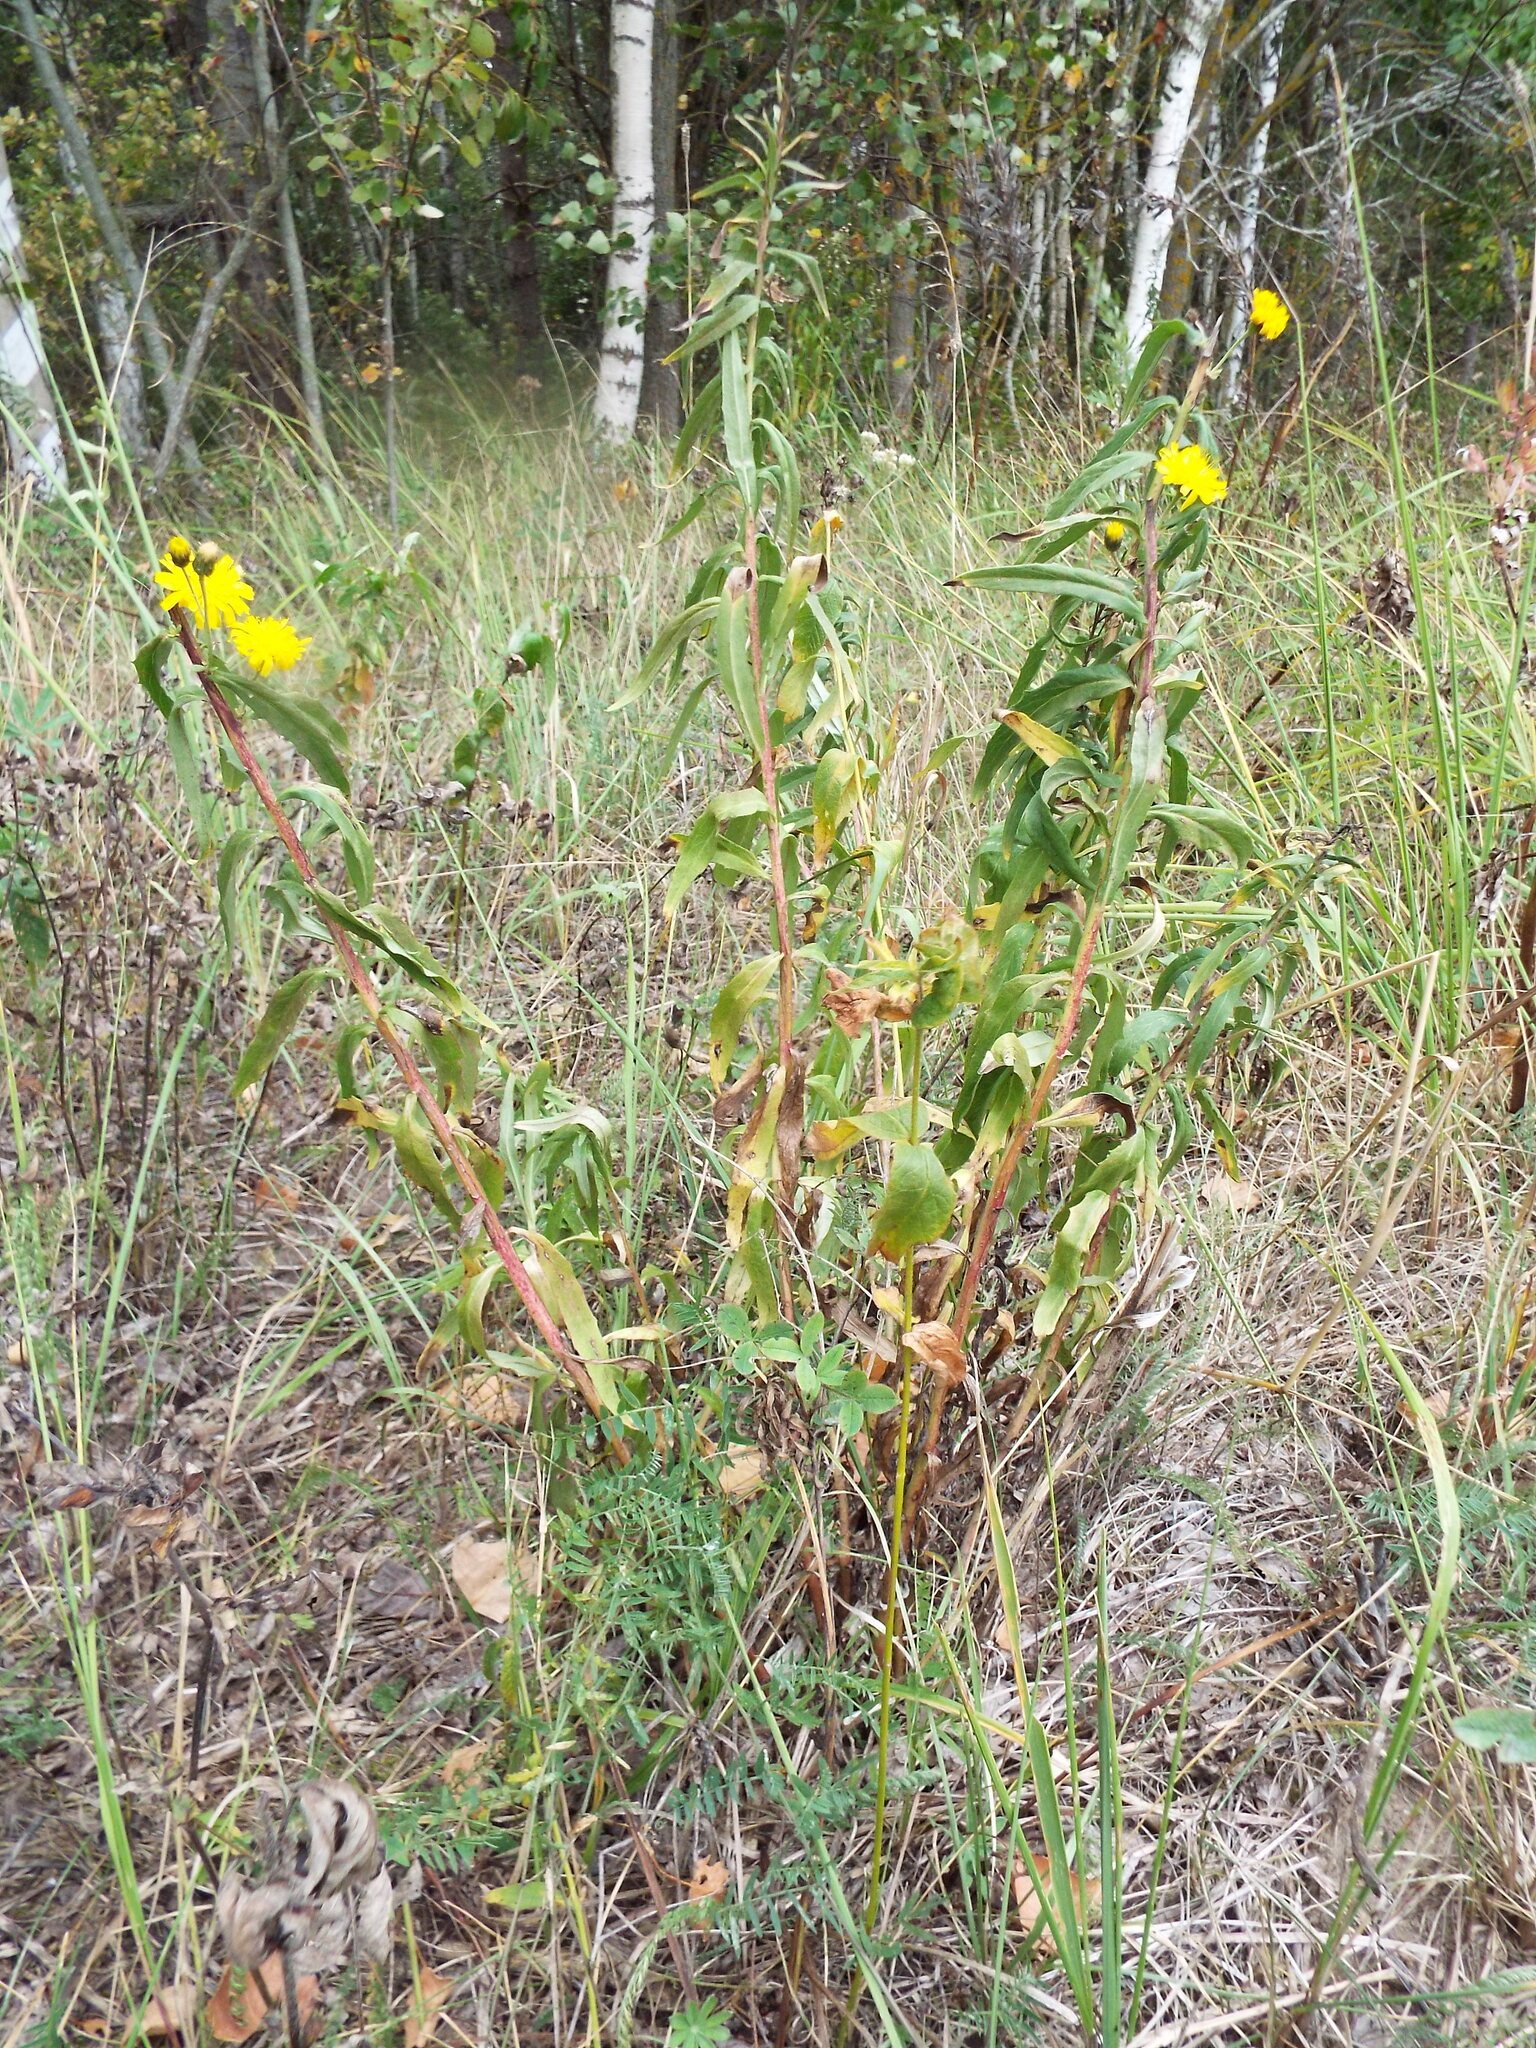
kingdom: Plantae
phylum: Tracheophyta
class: Magnoliopsida
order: Asterales
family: Asteraceae
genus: Hieracium
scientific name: Hieracium umbellatum
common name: Northern hawkweed
